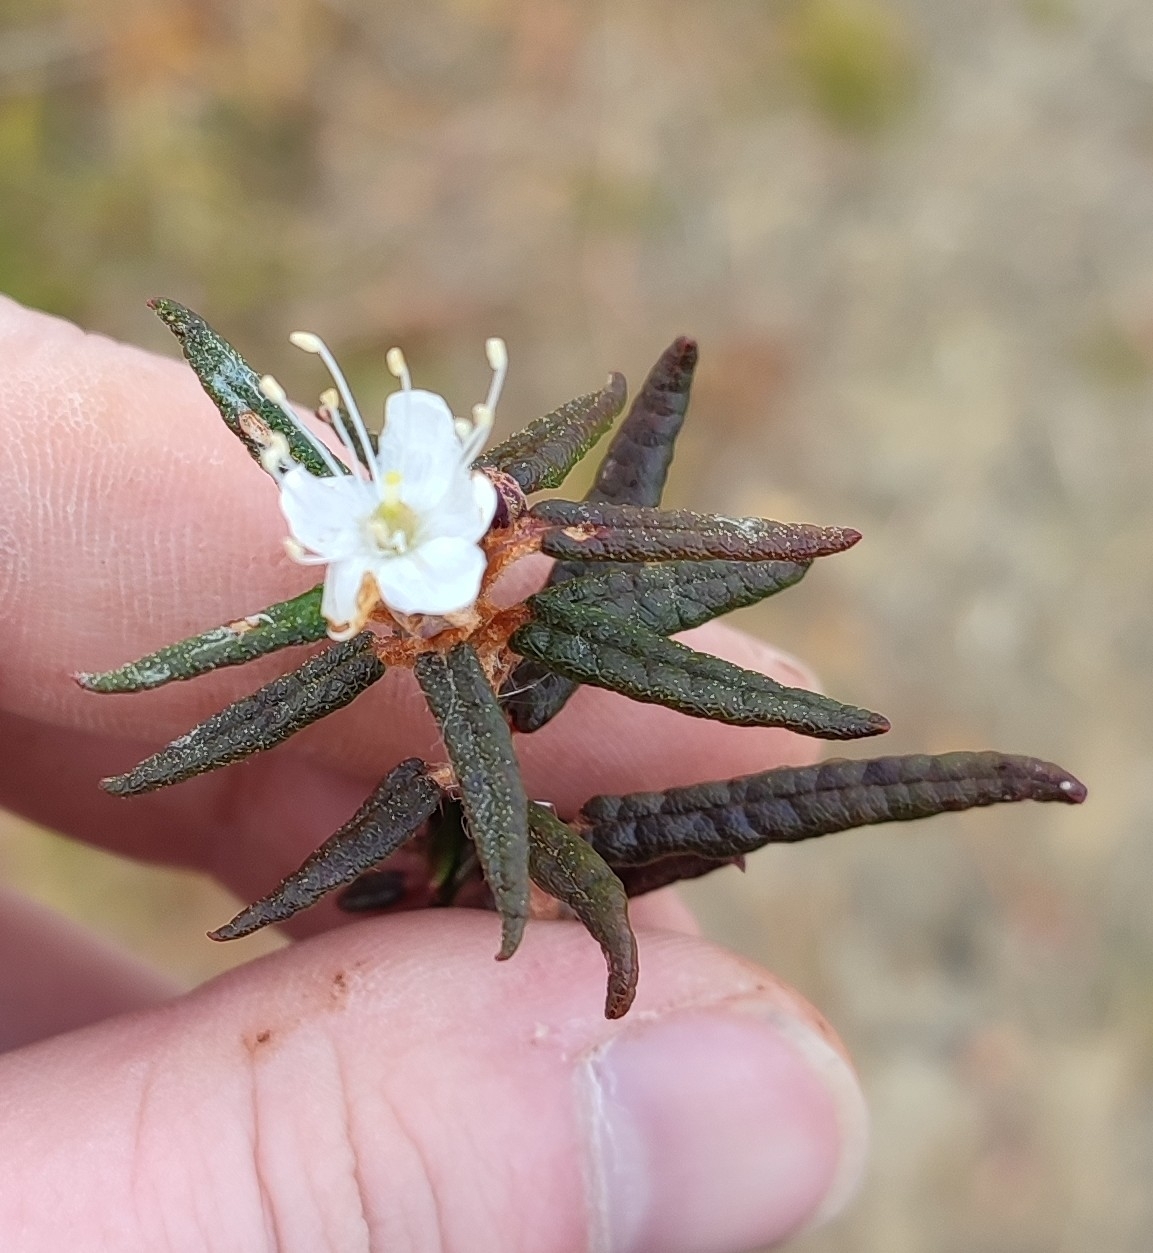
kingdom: Plantae
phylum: Tracheophyta
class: Magnoliopsida
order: Ericales
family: Ericaceae
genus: Rhododendron
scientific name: Rhododendron tomentosum
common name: Marsh labrador tea
